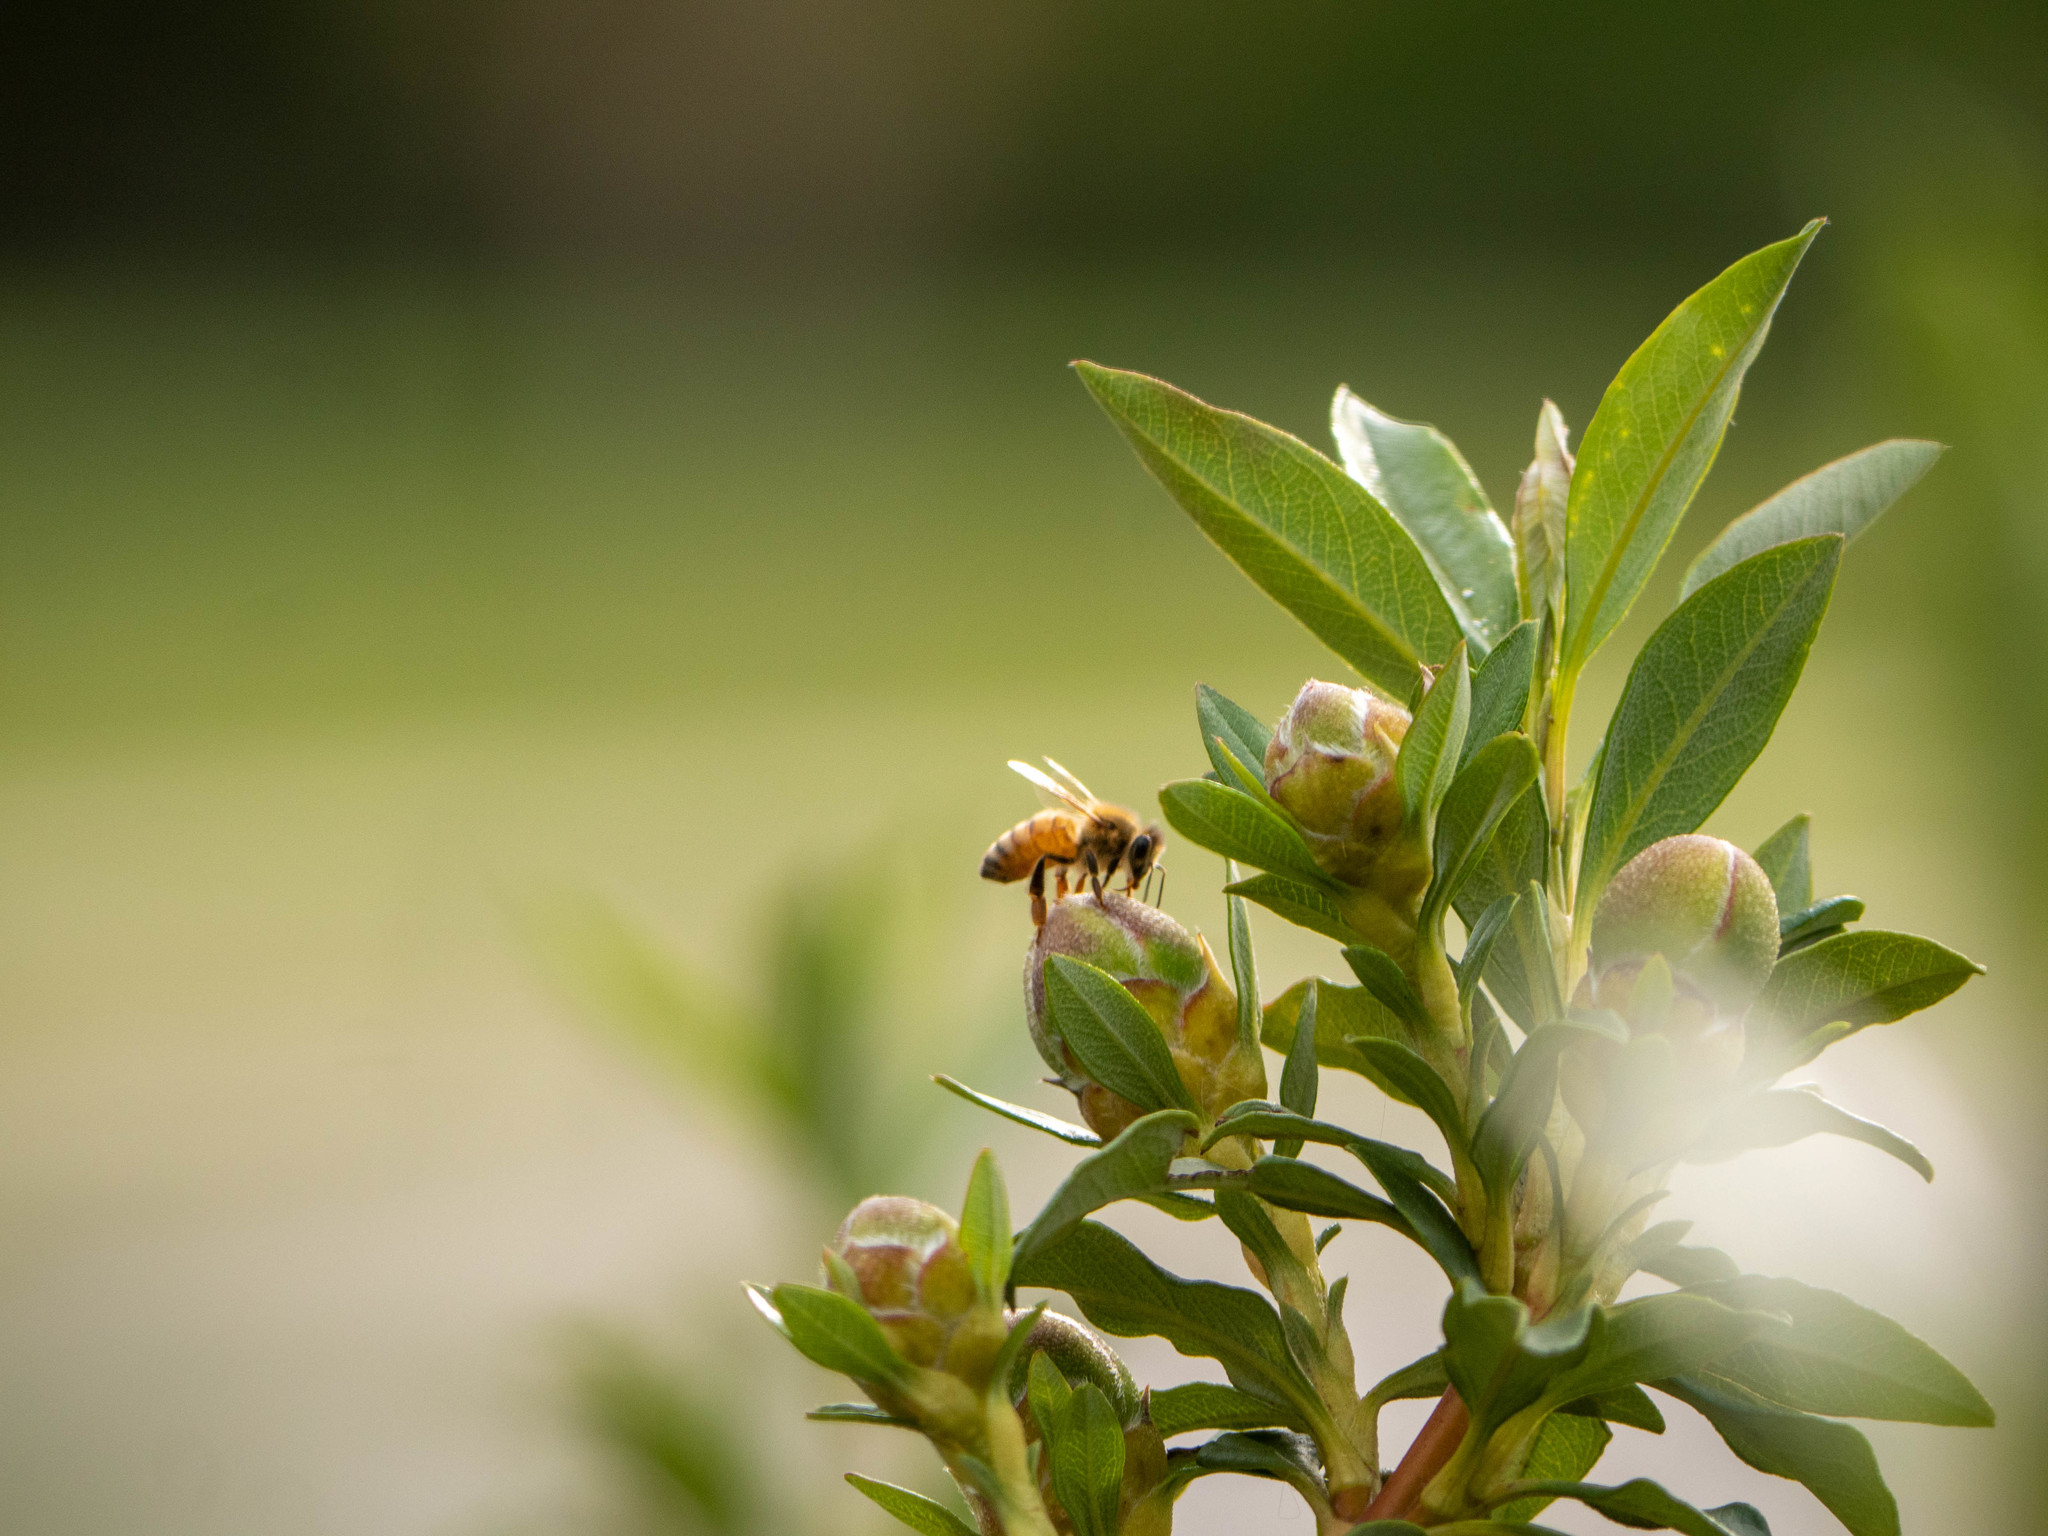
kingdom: Animalia
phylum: Arthropoda
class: Insecta
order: Hymenoptera
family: Apidae
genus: Apis
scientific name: Apis mellifera
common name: Honey bee
